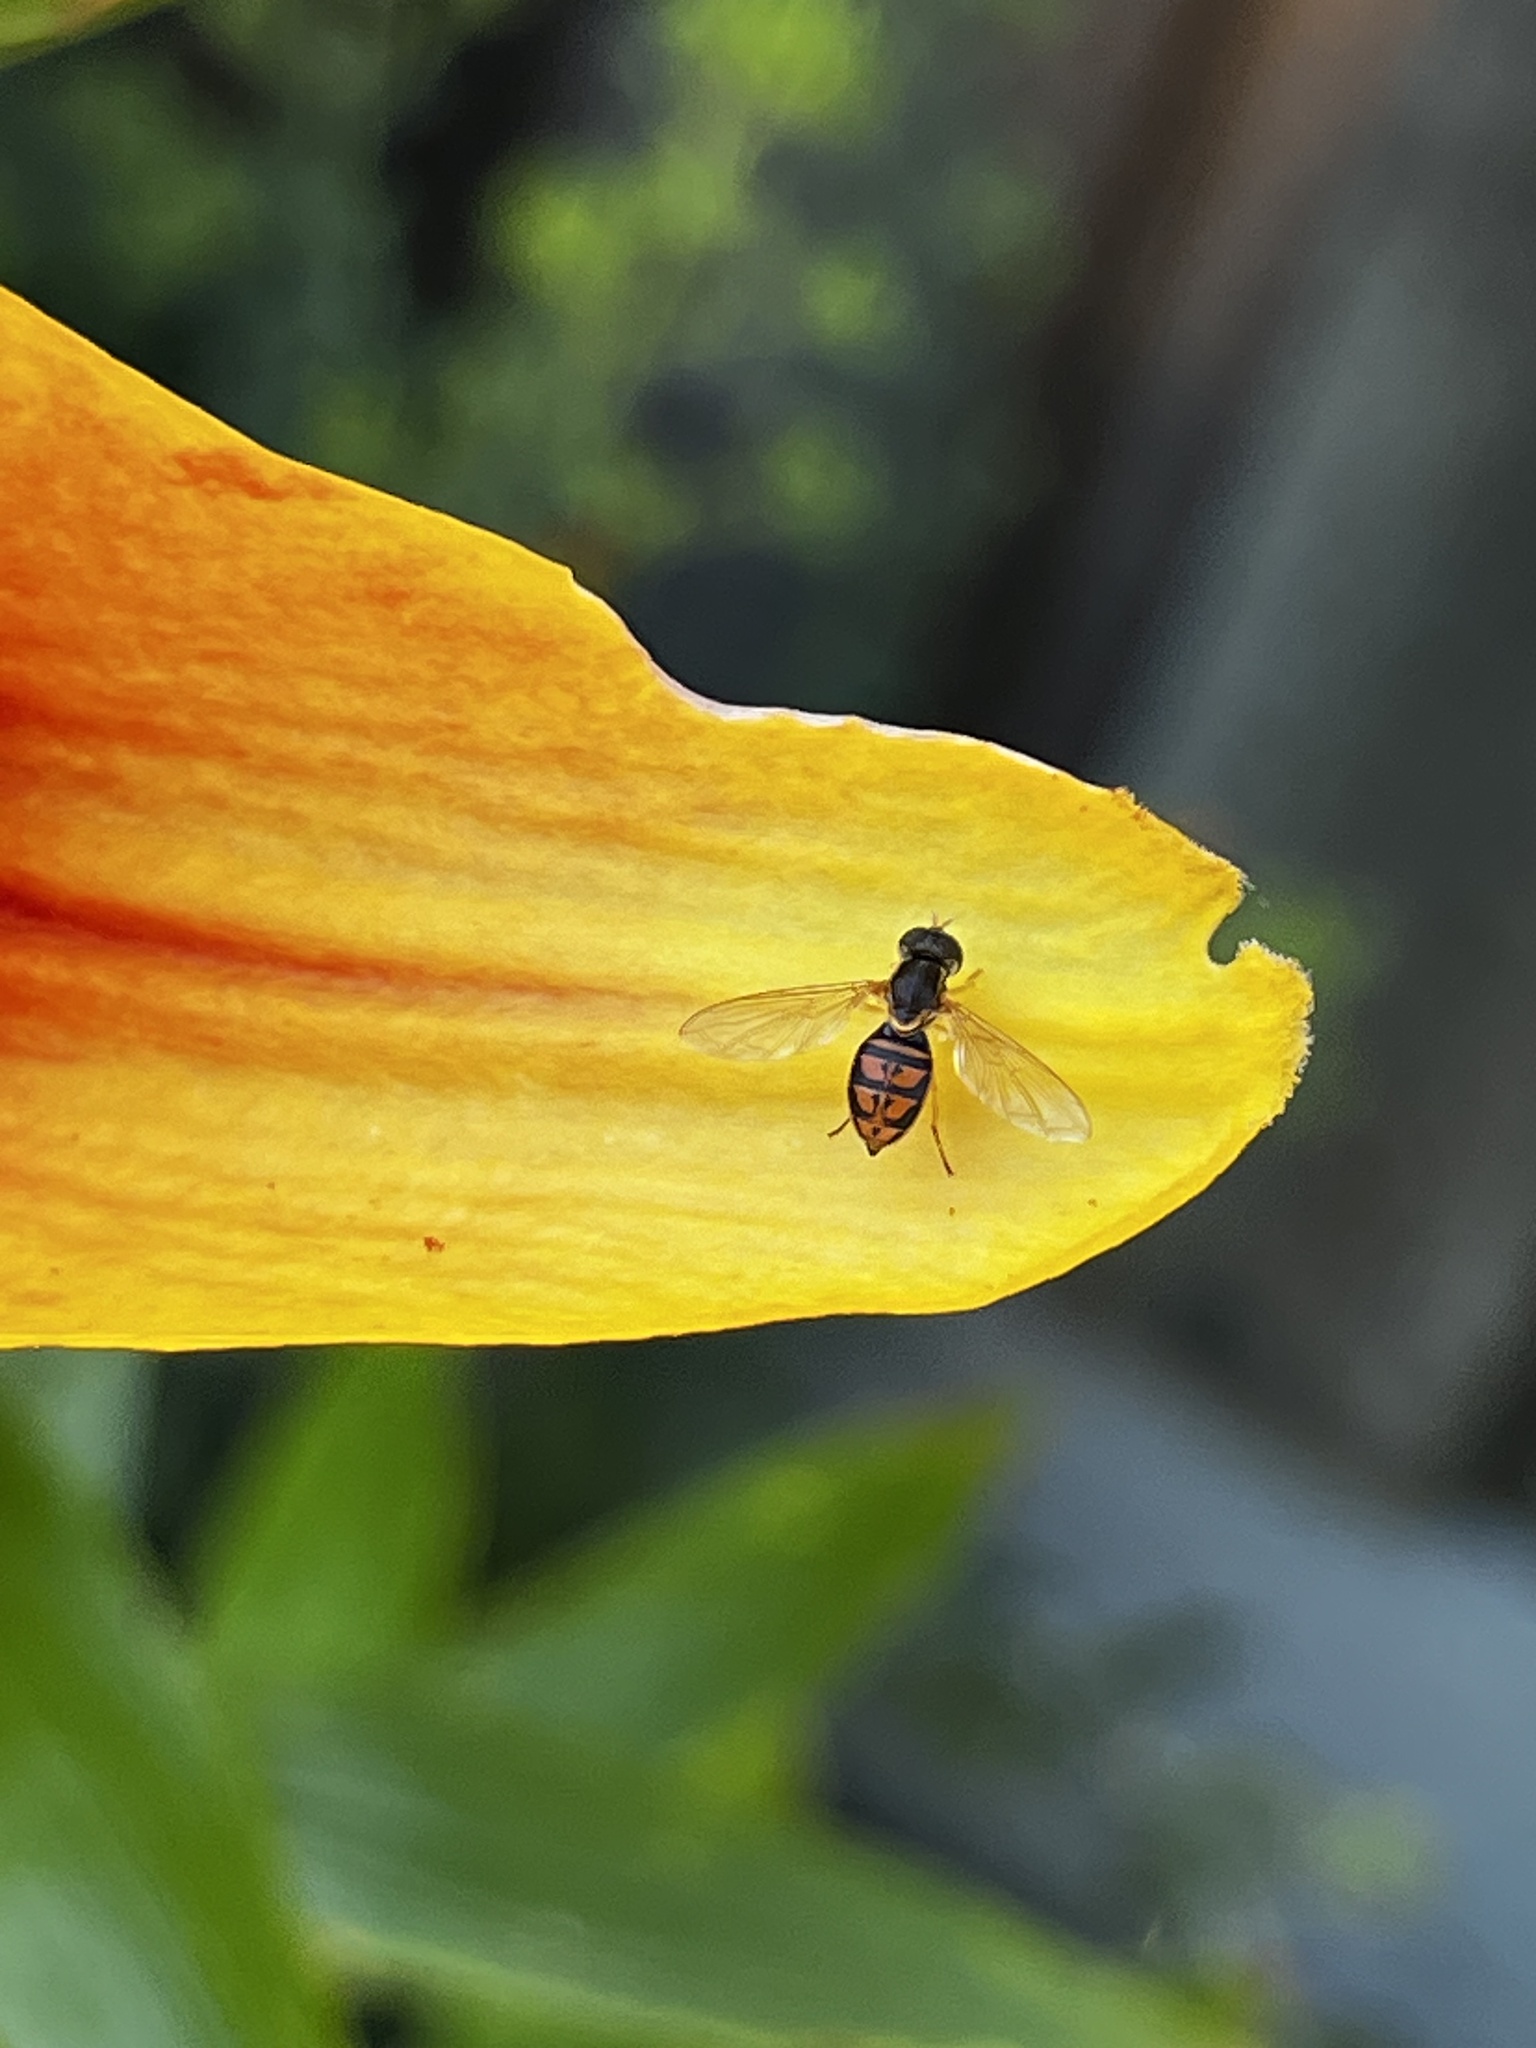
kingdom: Animalia
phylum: Arthropoda
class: Insecta
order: Diptera
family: Syrphidae
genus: Toxomerus
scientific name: Toxomerus marginatus
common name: Syrphid fly
